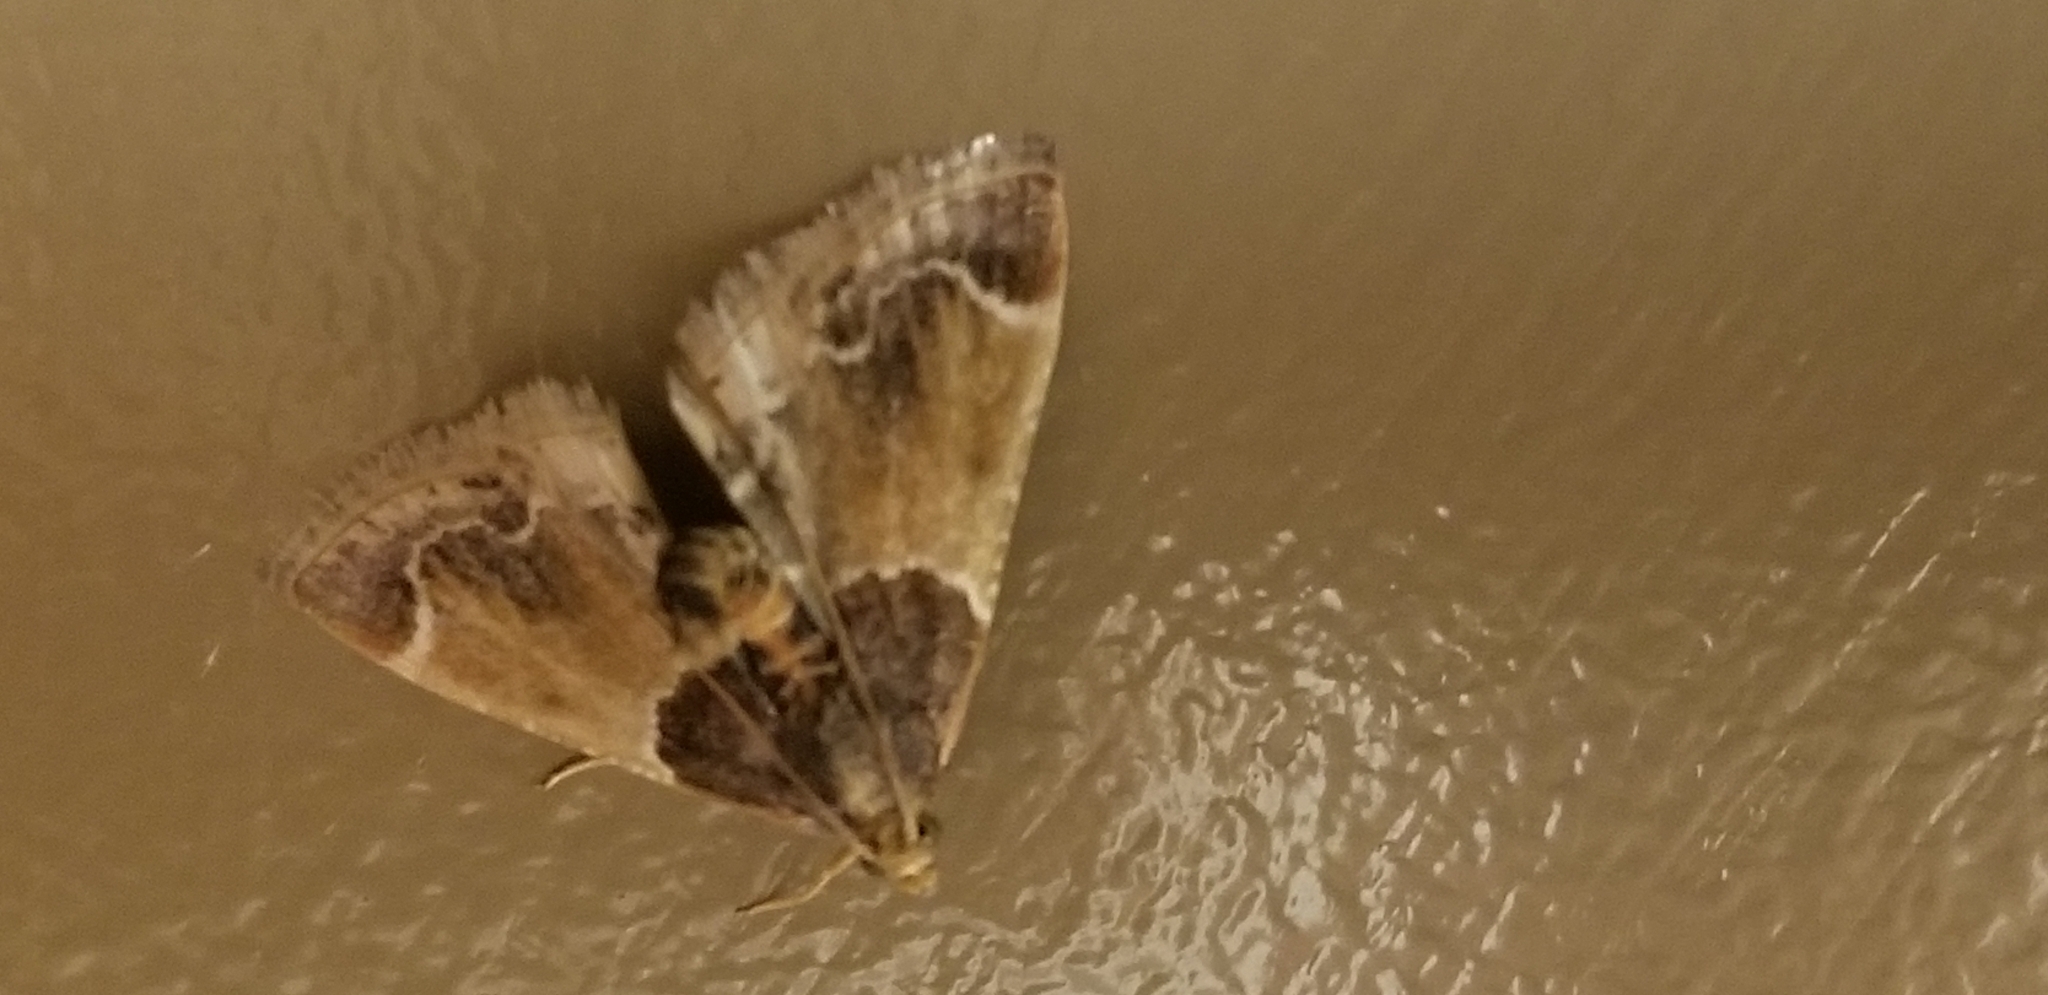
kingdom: Animalia
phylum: Arthropoda
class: Insecta
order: Lepidoptera
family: Pyralidae
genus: Pyralis
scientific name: Pyralis farinalis
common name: Meal moth
